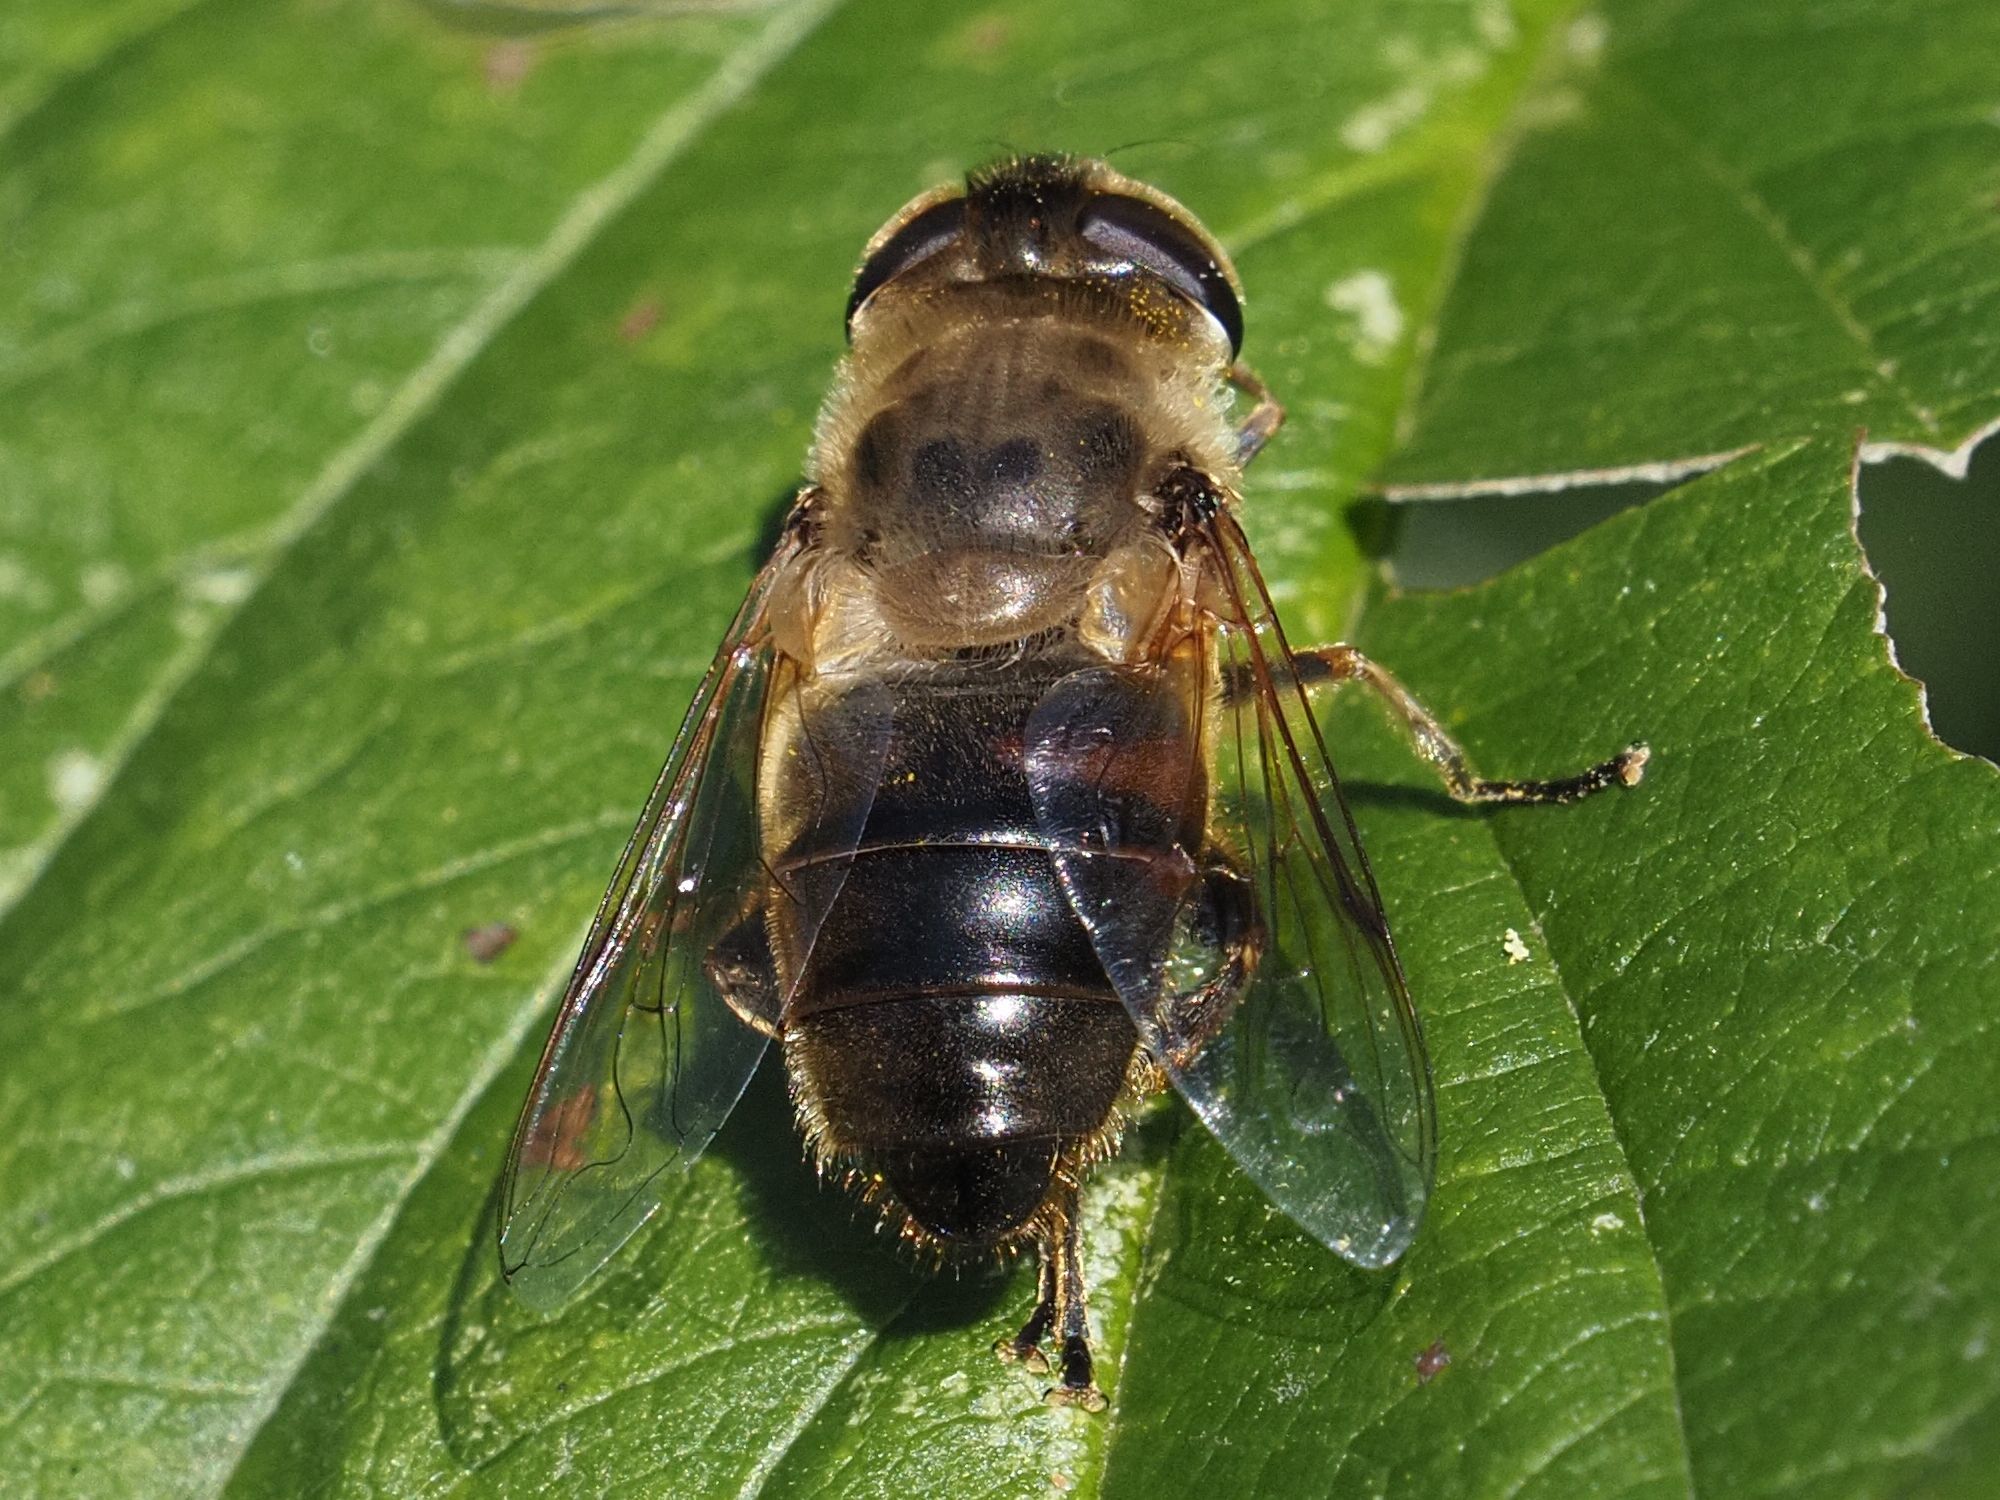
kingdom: Animalia
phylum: Arthropoda
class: Insecta
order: Diptera
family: Syrphidae
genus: Eristalis
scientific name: Eristalis tenax
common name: Drone fly
